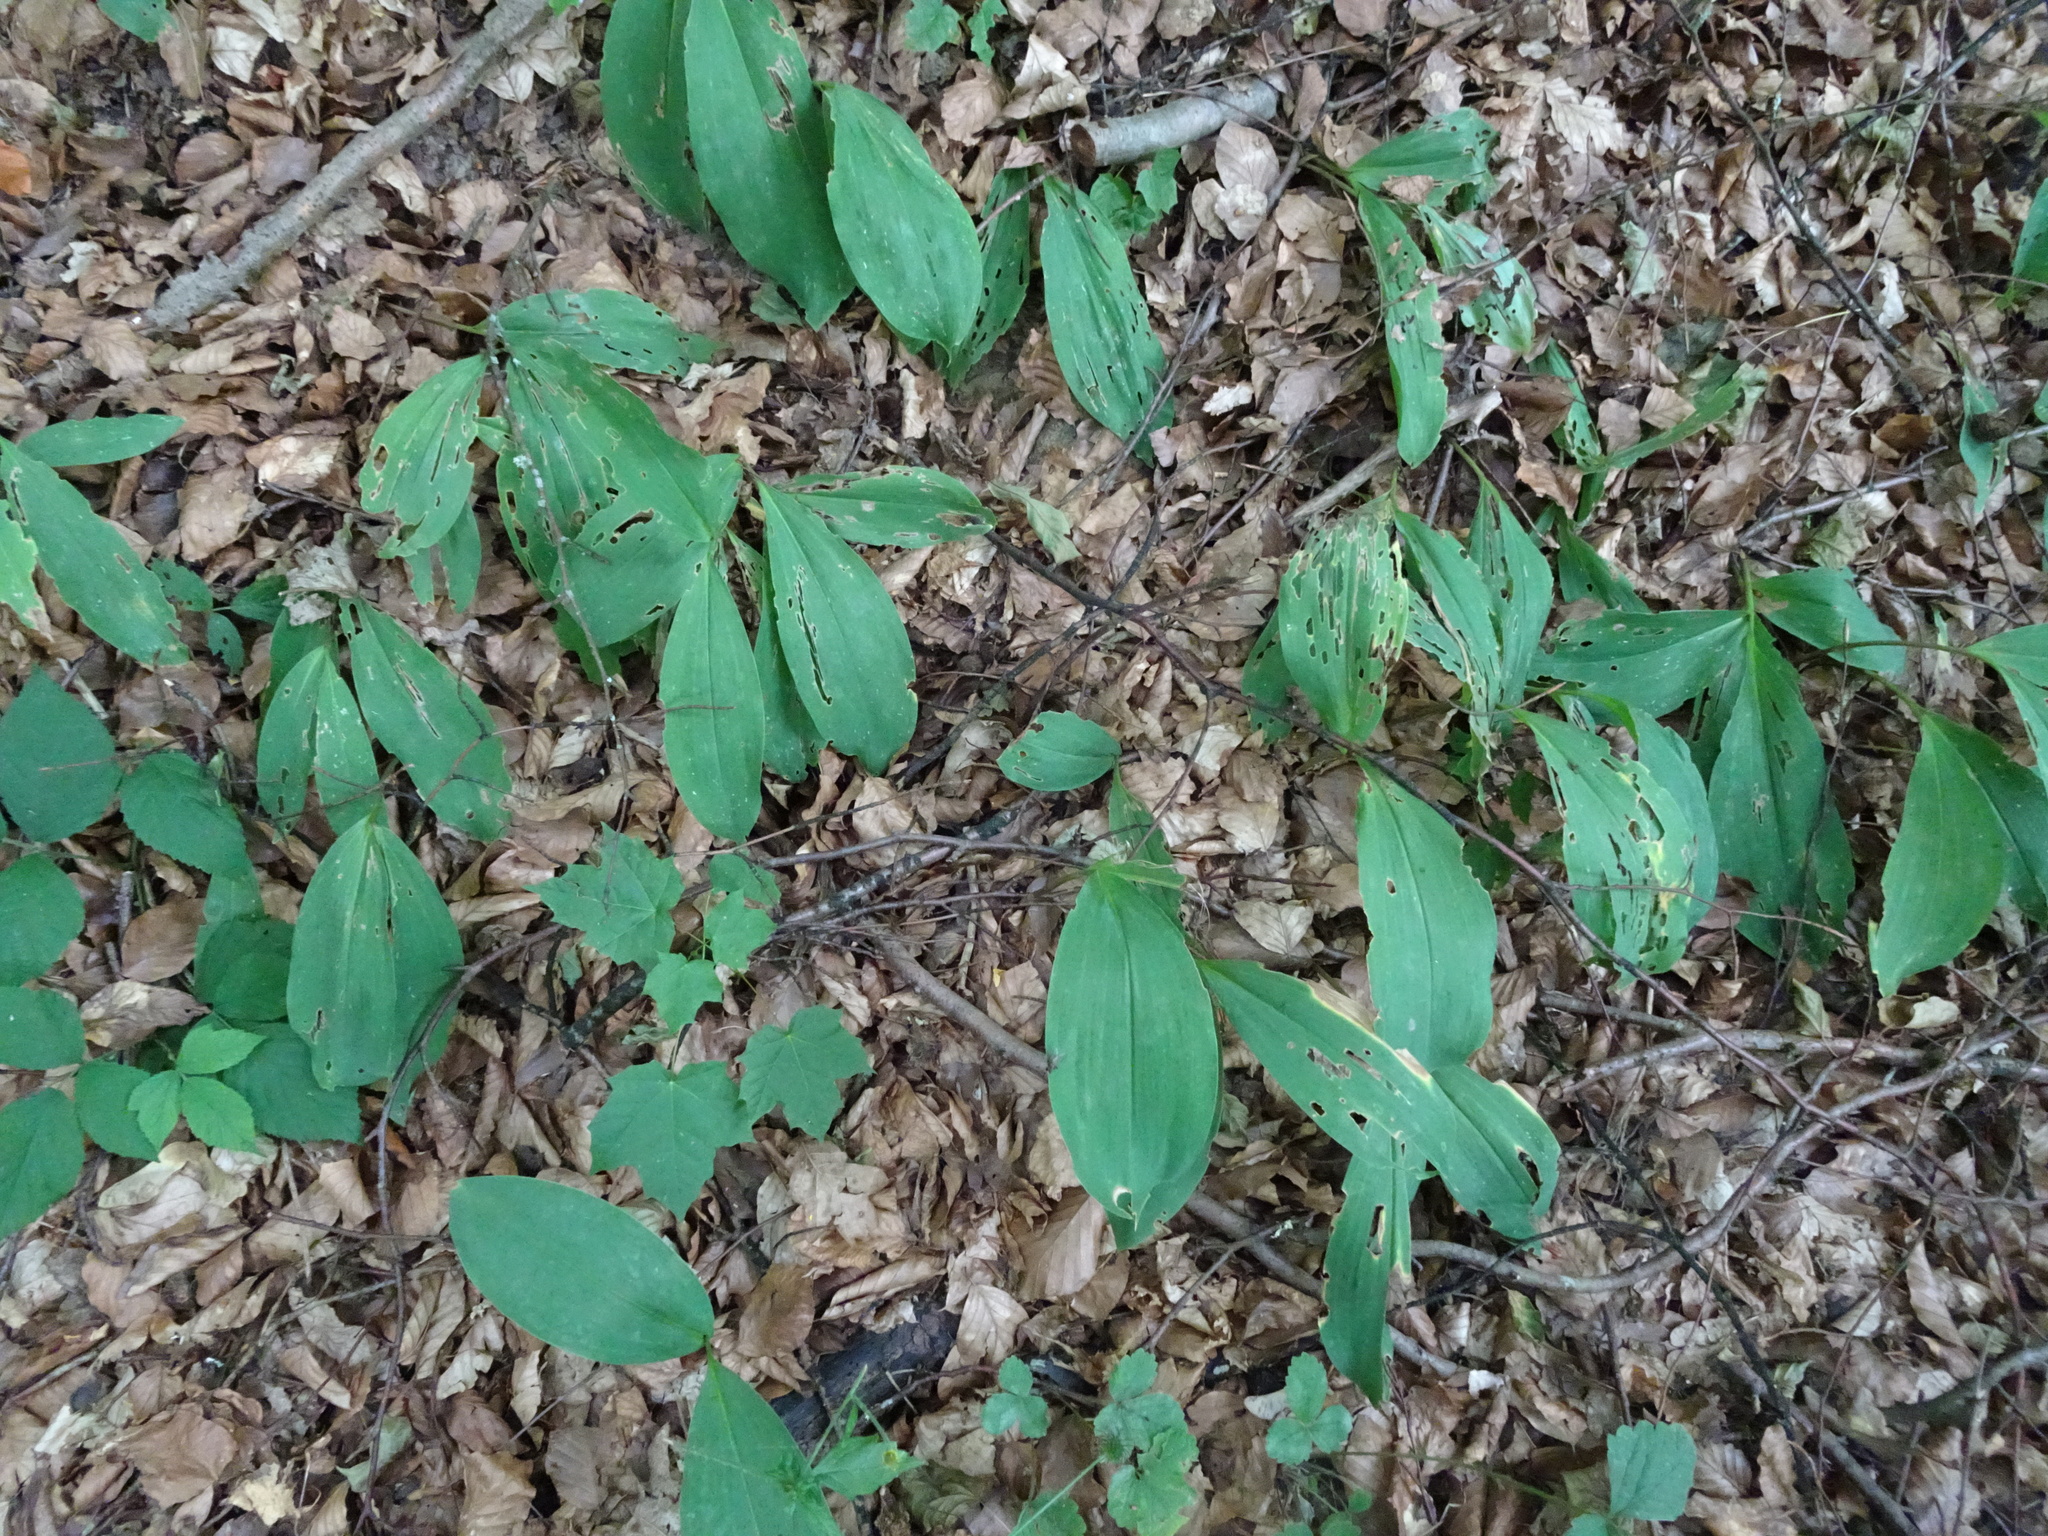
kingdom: Plantae
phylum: Tracheophyta
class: Liliopsida
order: Asparagales
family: Asparagaceae
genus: Convallaria
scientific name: Convallaria majalis
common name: Lily-of-the-valley
